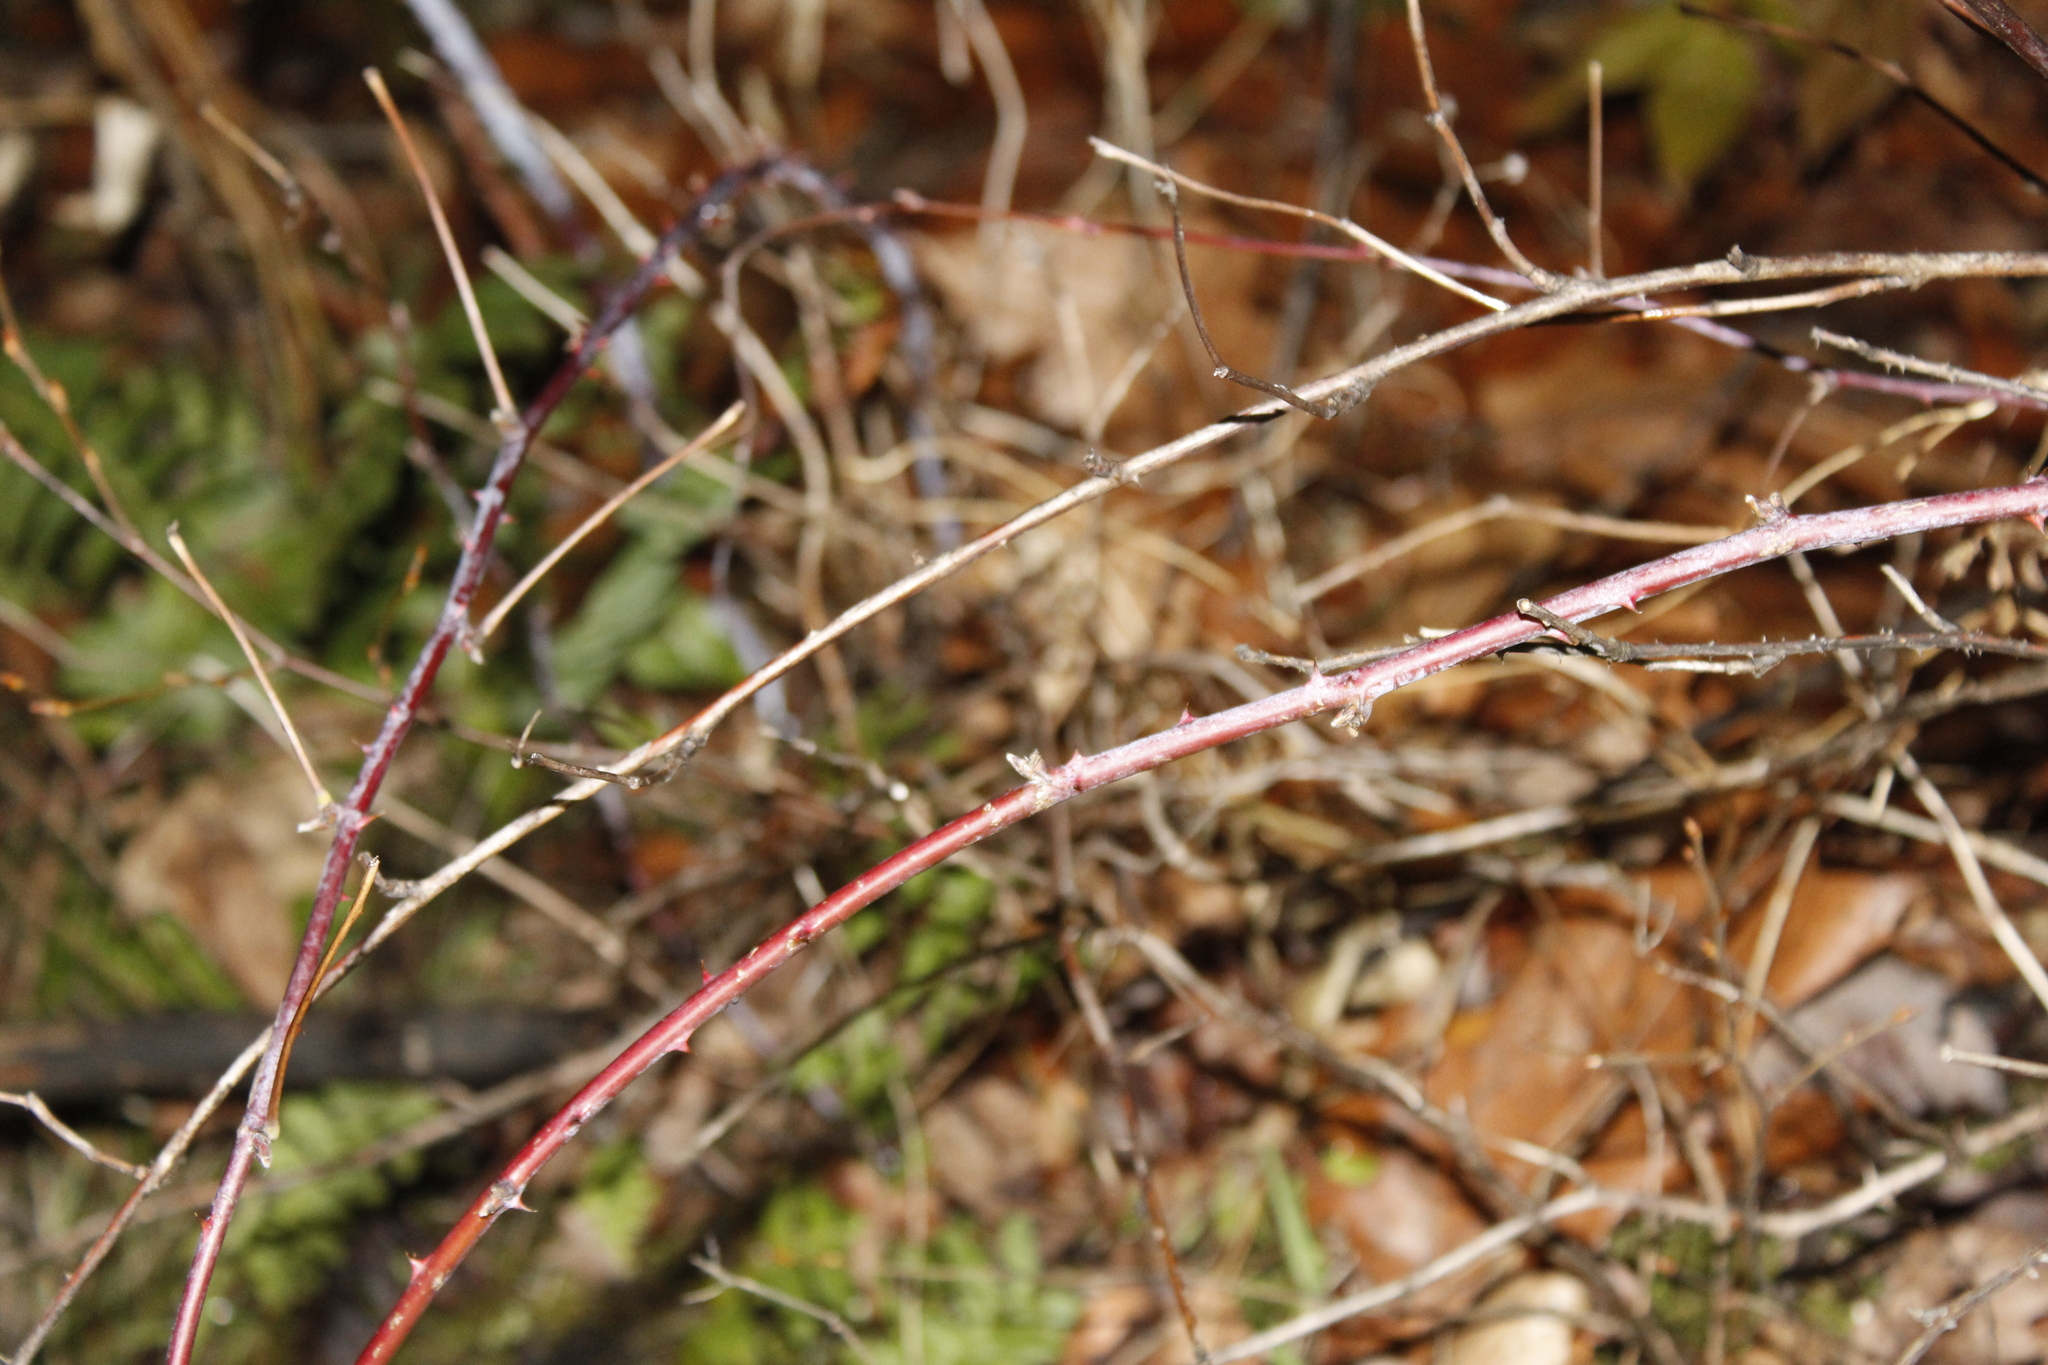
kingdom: Plantae
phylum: Tracheophyta
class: Magnoliopsida
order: Rosales
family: Rosaceae
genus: Rubus
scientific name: Rubus occidentalis
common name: Black raspberry
